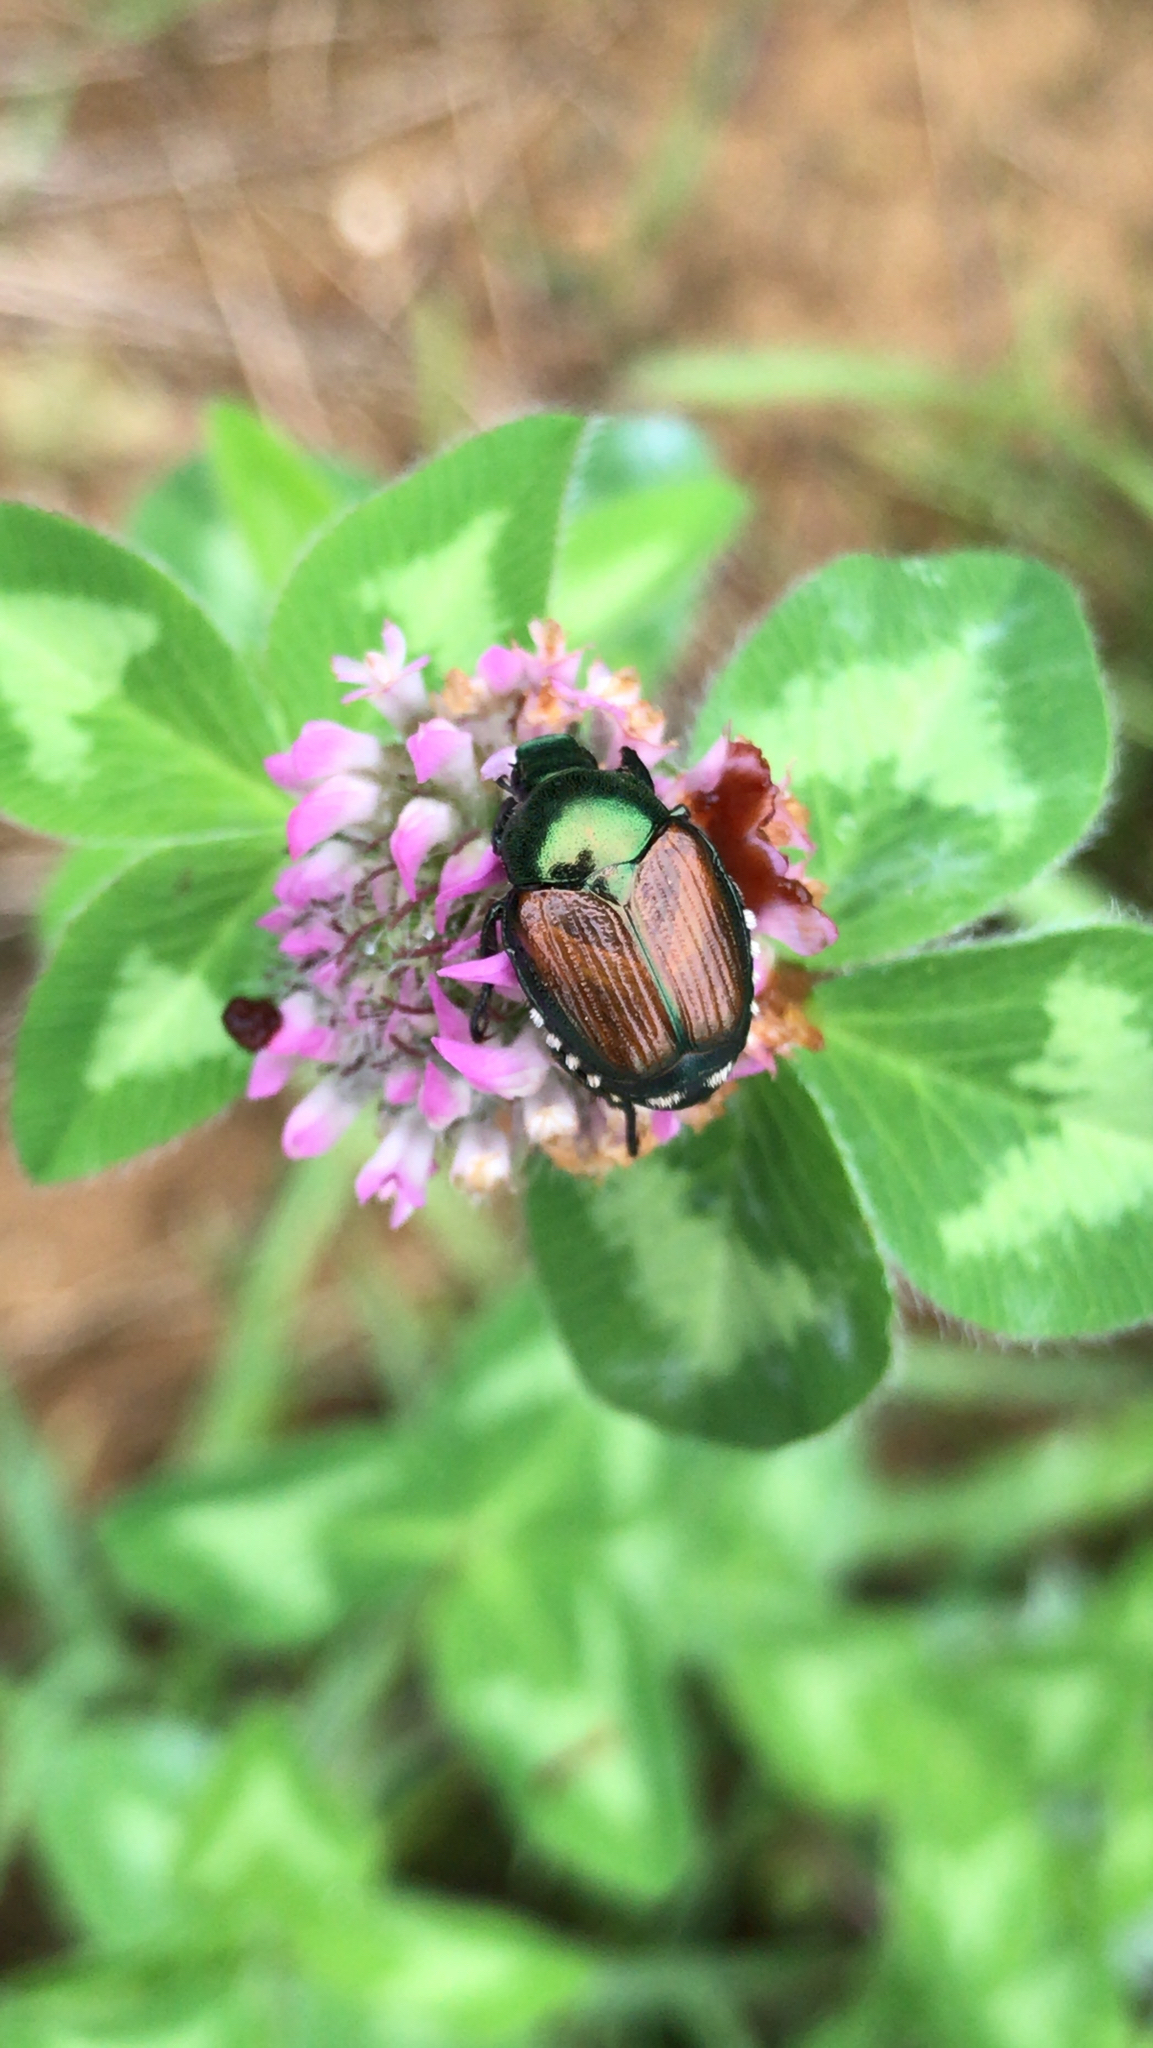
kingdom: Animalia
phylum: Arthropoda
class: Insecta
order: Coleoptera
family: Scarabaeidae
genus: Popillia
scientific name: Popillia japonica
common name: Japanese beetle
